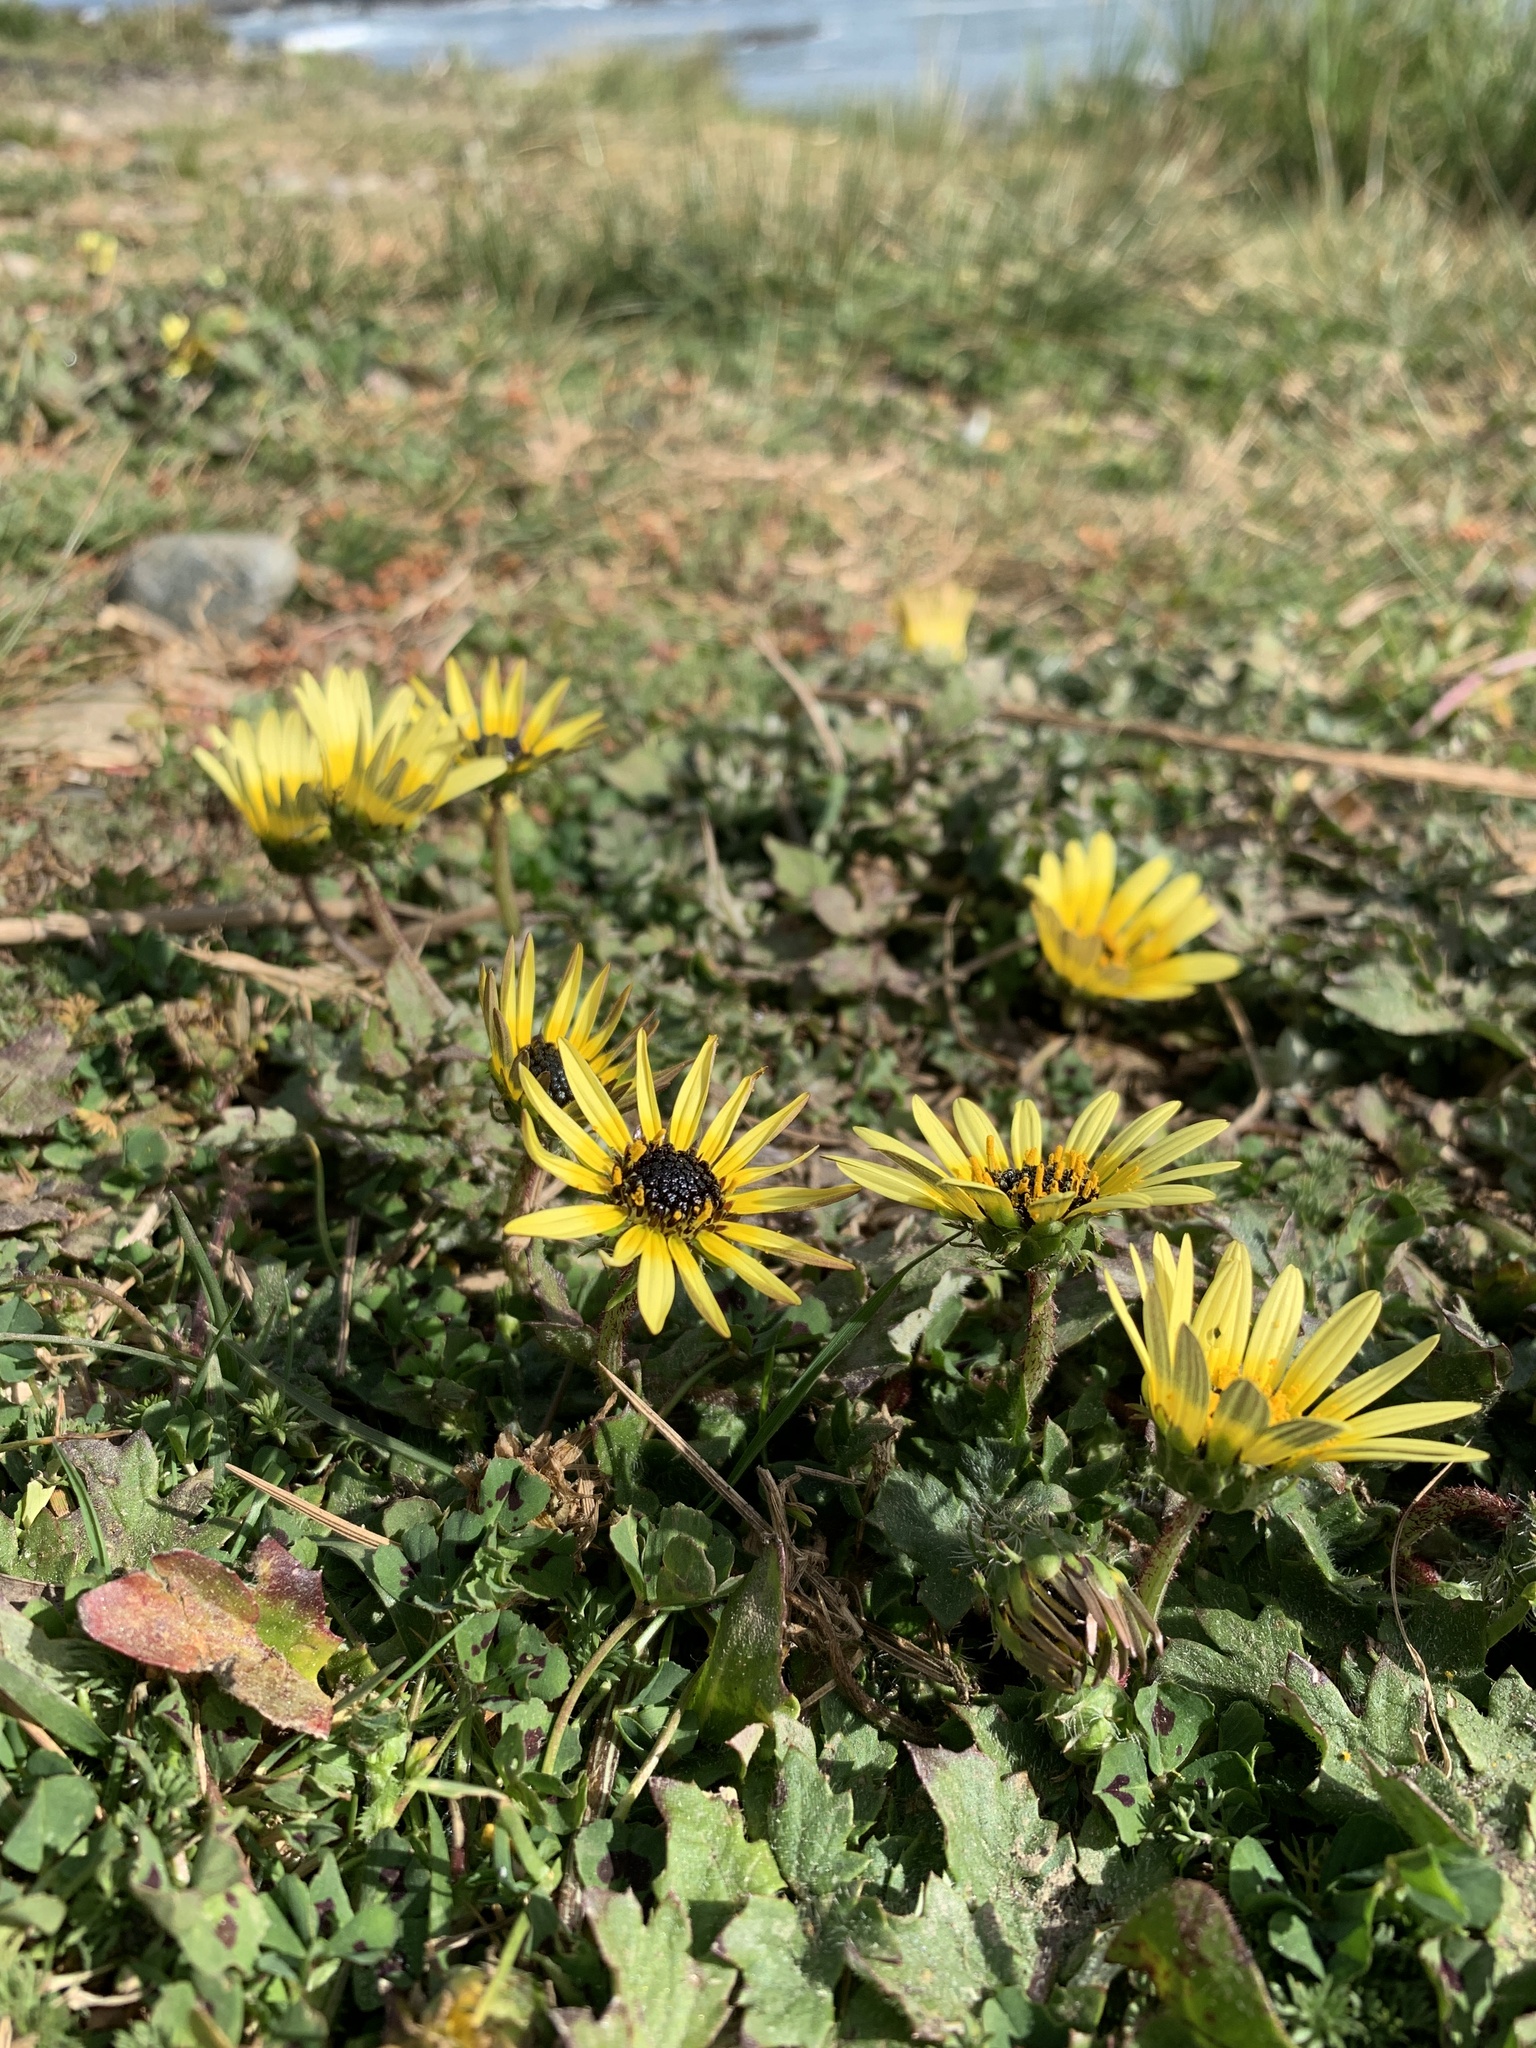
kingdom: Plantae
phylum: Tracheophyta
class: Magnoliopsida
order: Asterales
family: Asteraceae
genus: Arctotheca
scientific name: Arctotheca calendula
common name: Capeweed
